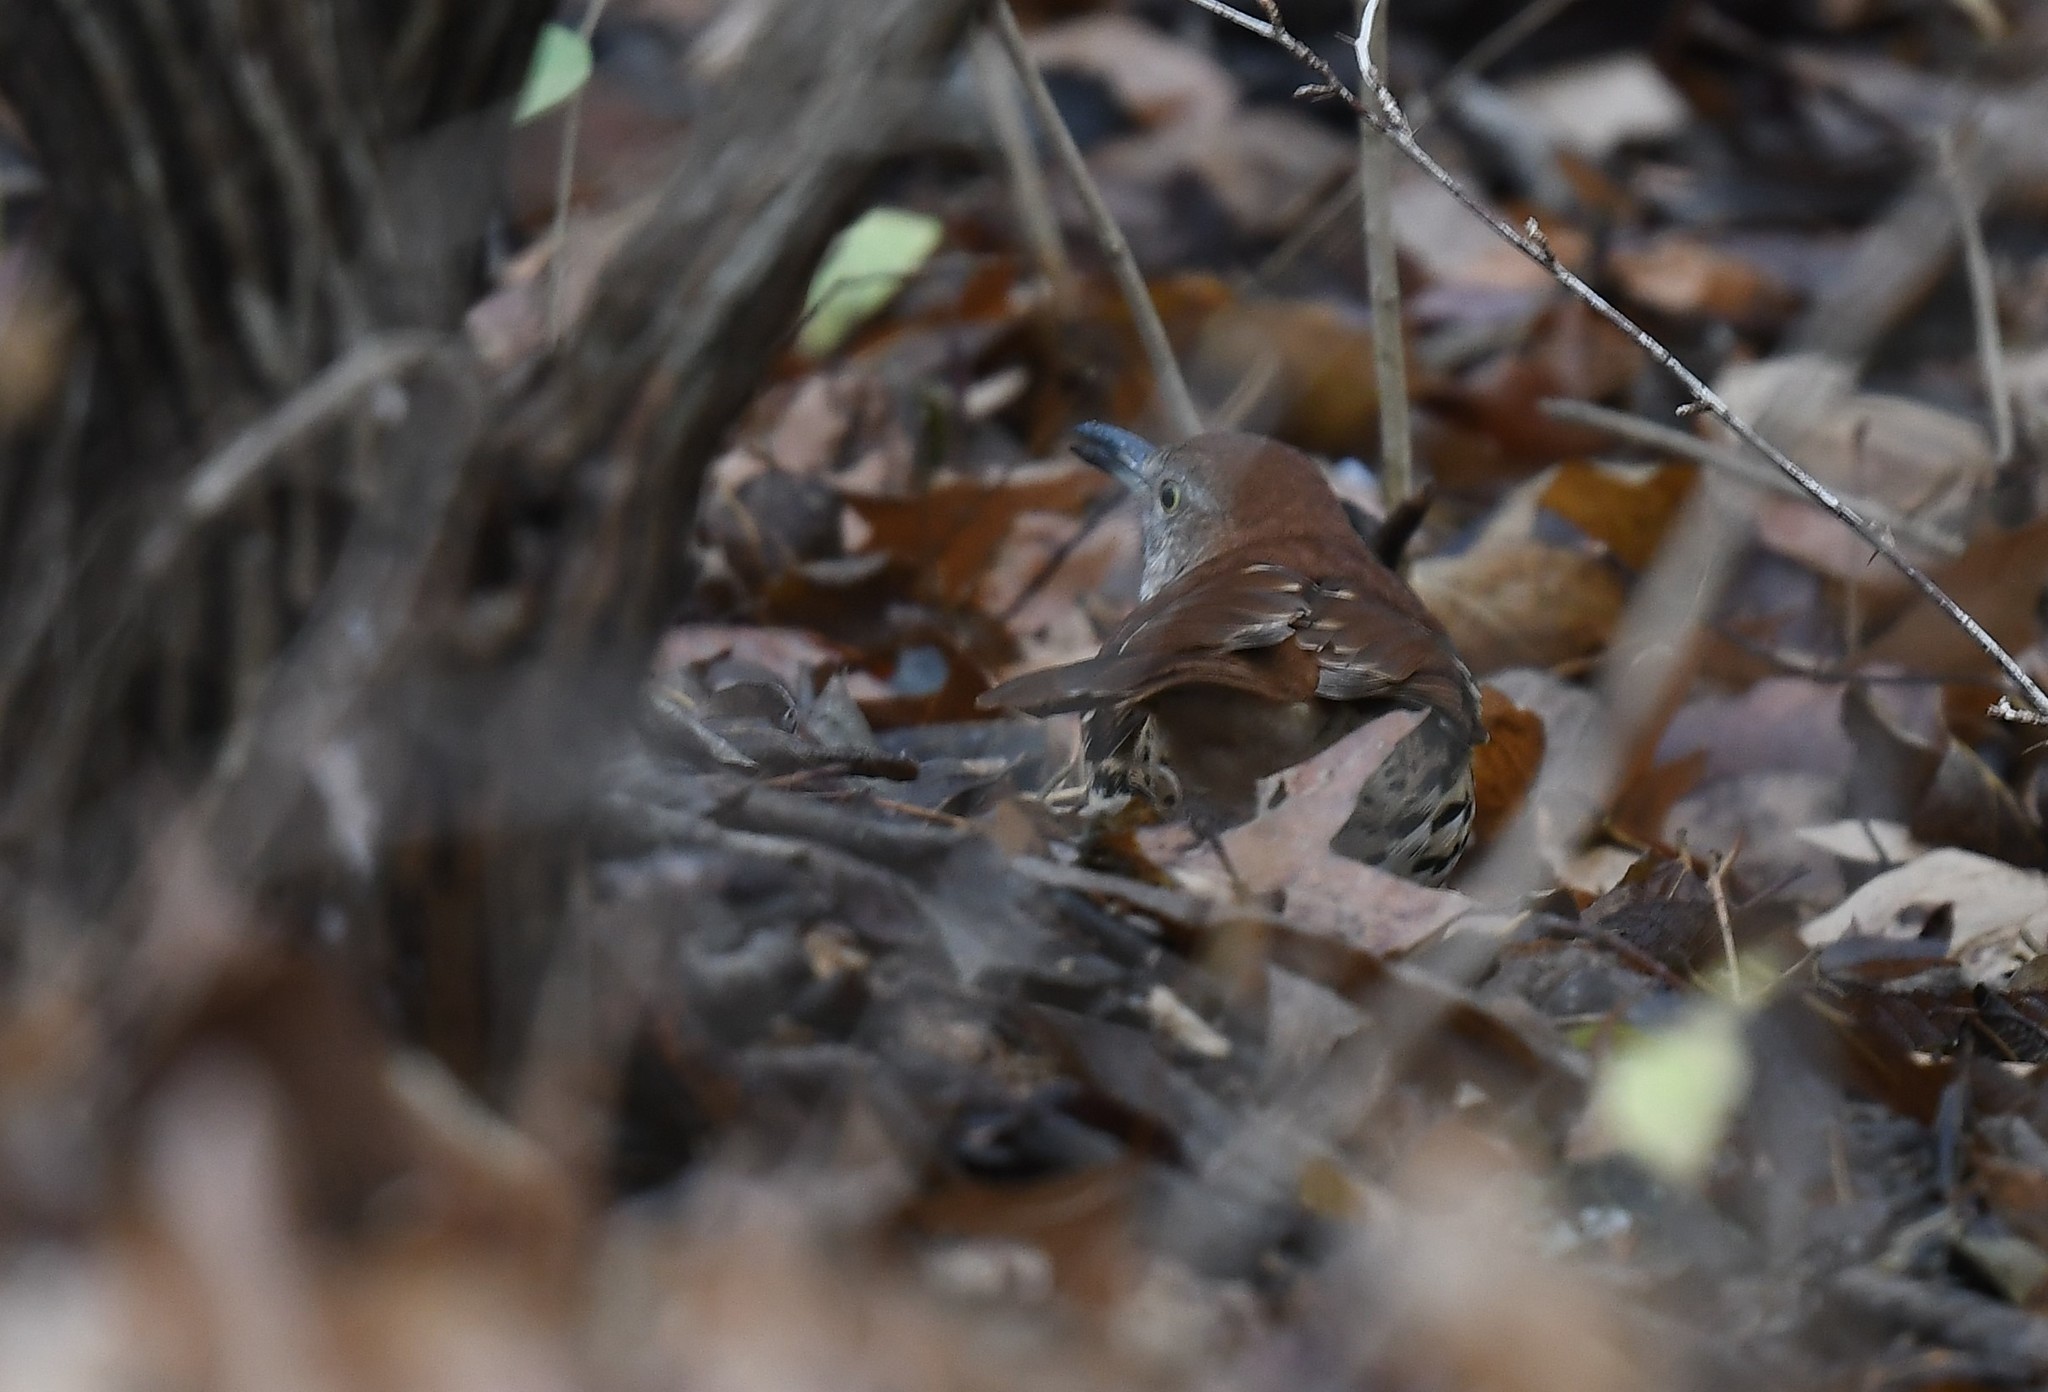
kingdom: Animalia
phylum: Chordata
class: Aves
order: Passeriformes
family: Mimidae
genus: Toxostoma
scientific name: Toxostoma rufum
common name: Brown thrasher
